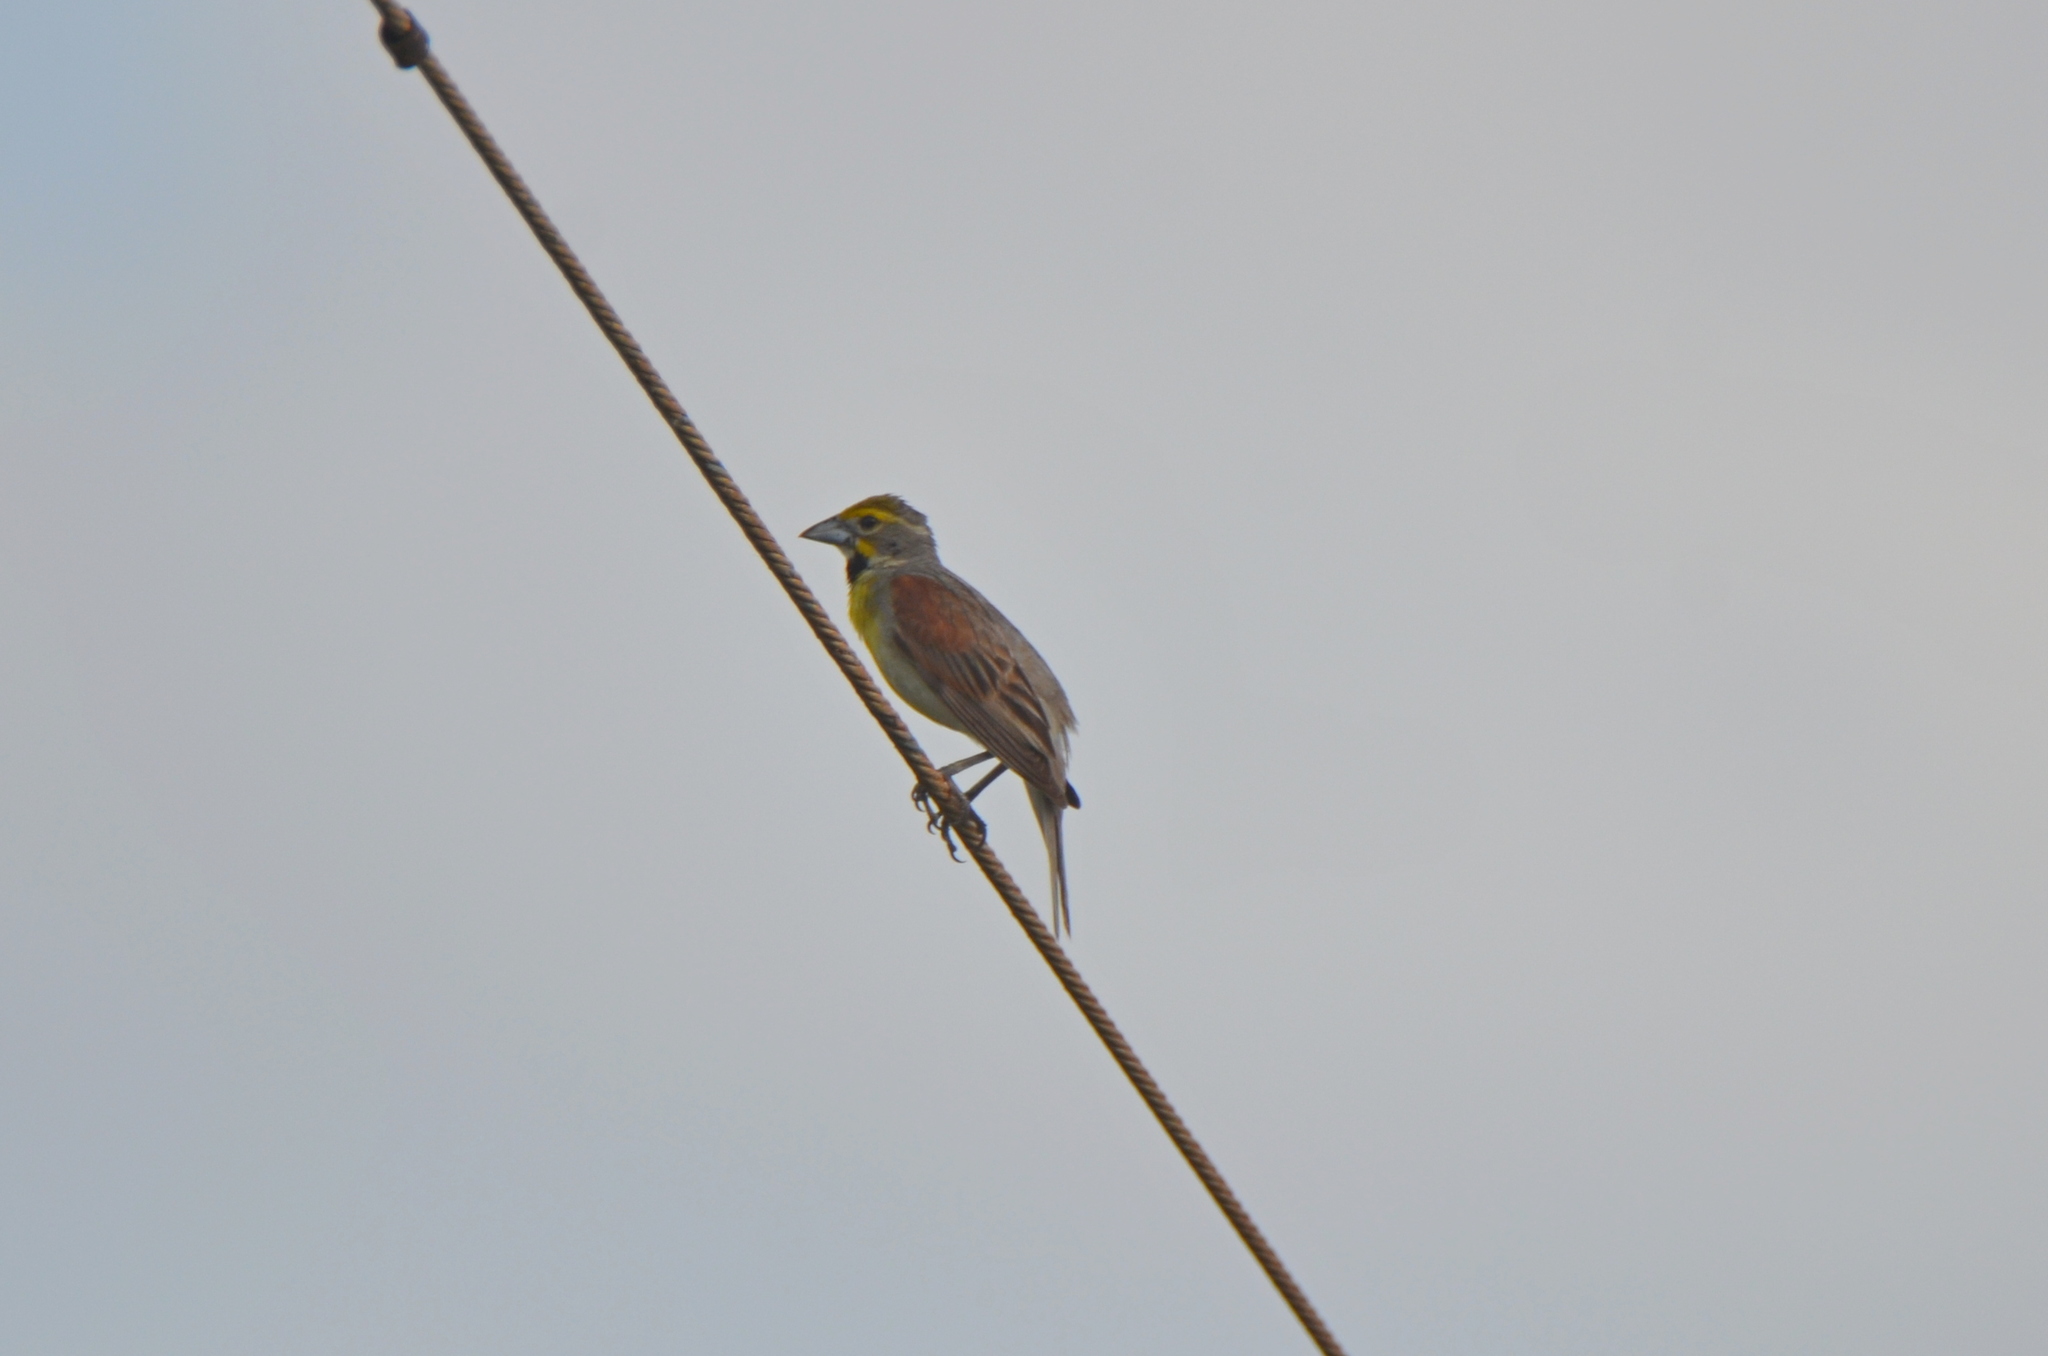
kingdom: Animalia
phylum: Chordata
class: Aves
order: Passeriformes
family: Cardinalidae
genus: Spiza
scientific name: Spiza americana
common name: Dickcissel
